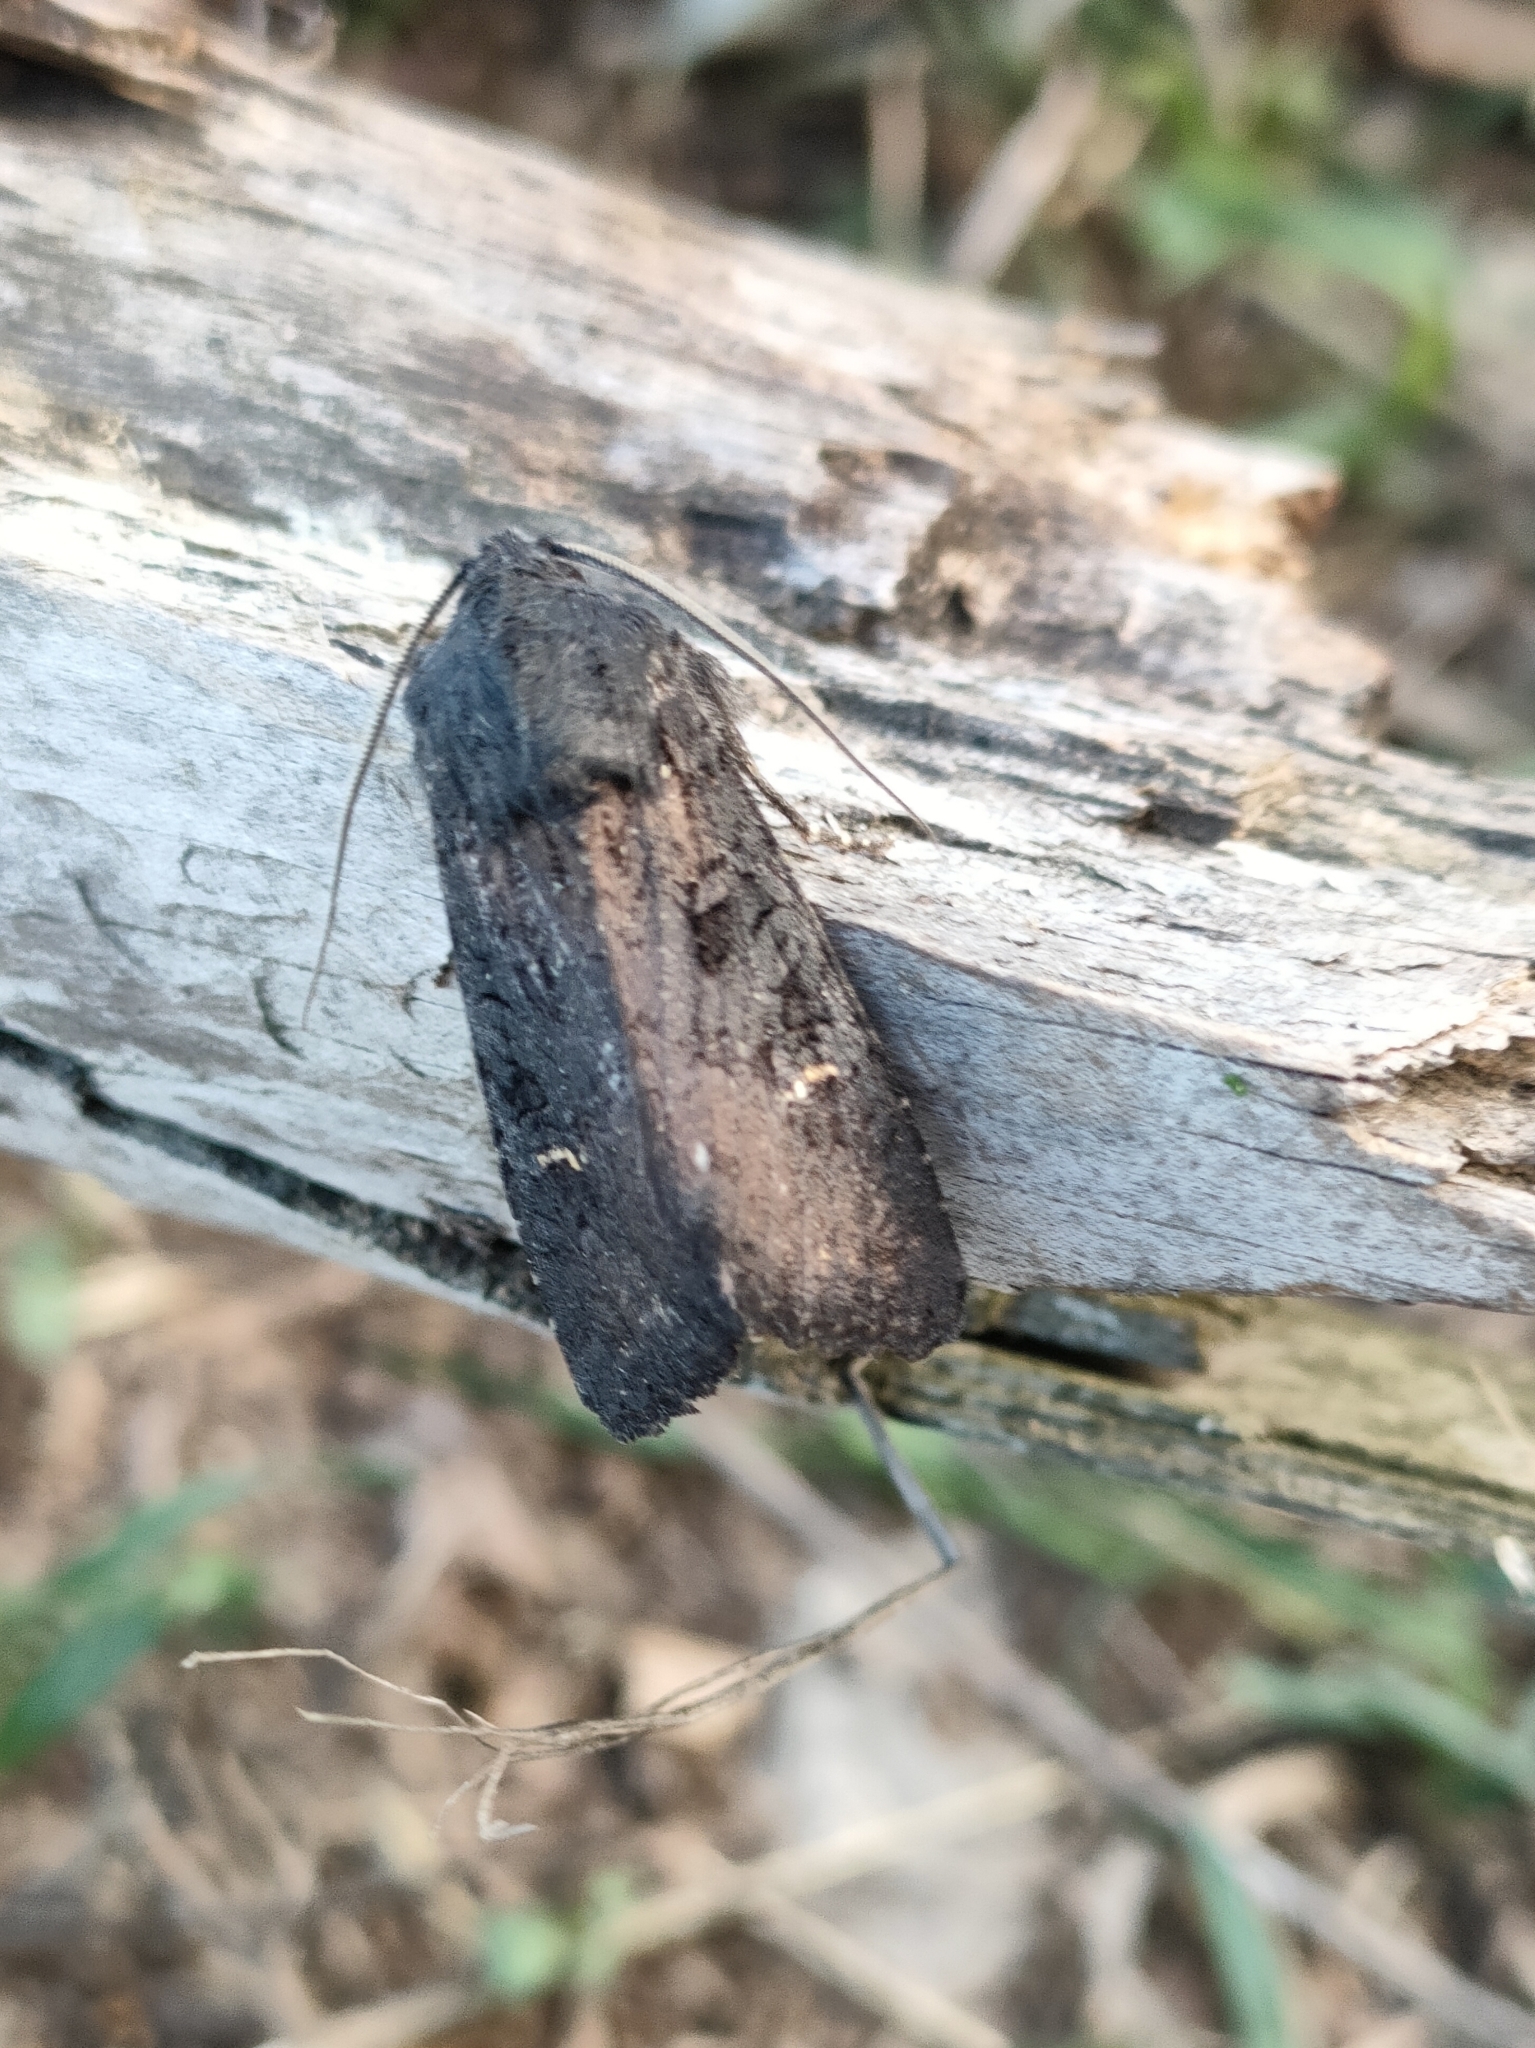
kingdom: Animalia
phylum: Arthropoda
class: Insecta
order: Lepidoptera
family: Noctuidae
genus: Aporophyla
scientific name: Aporophyla nigra
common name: Black rustic
